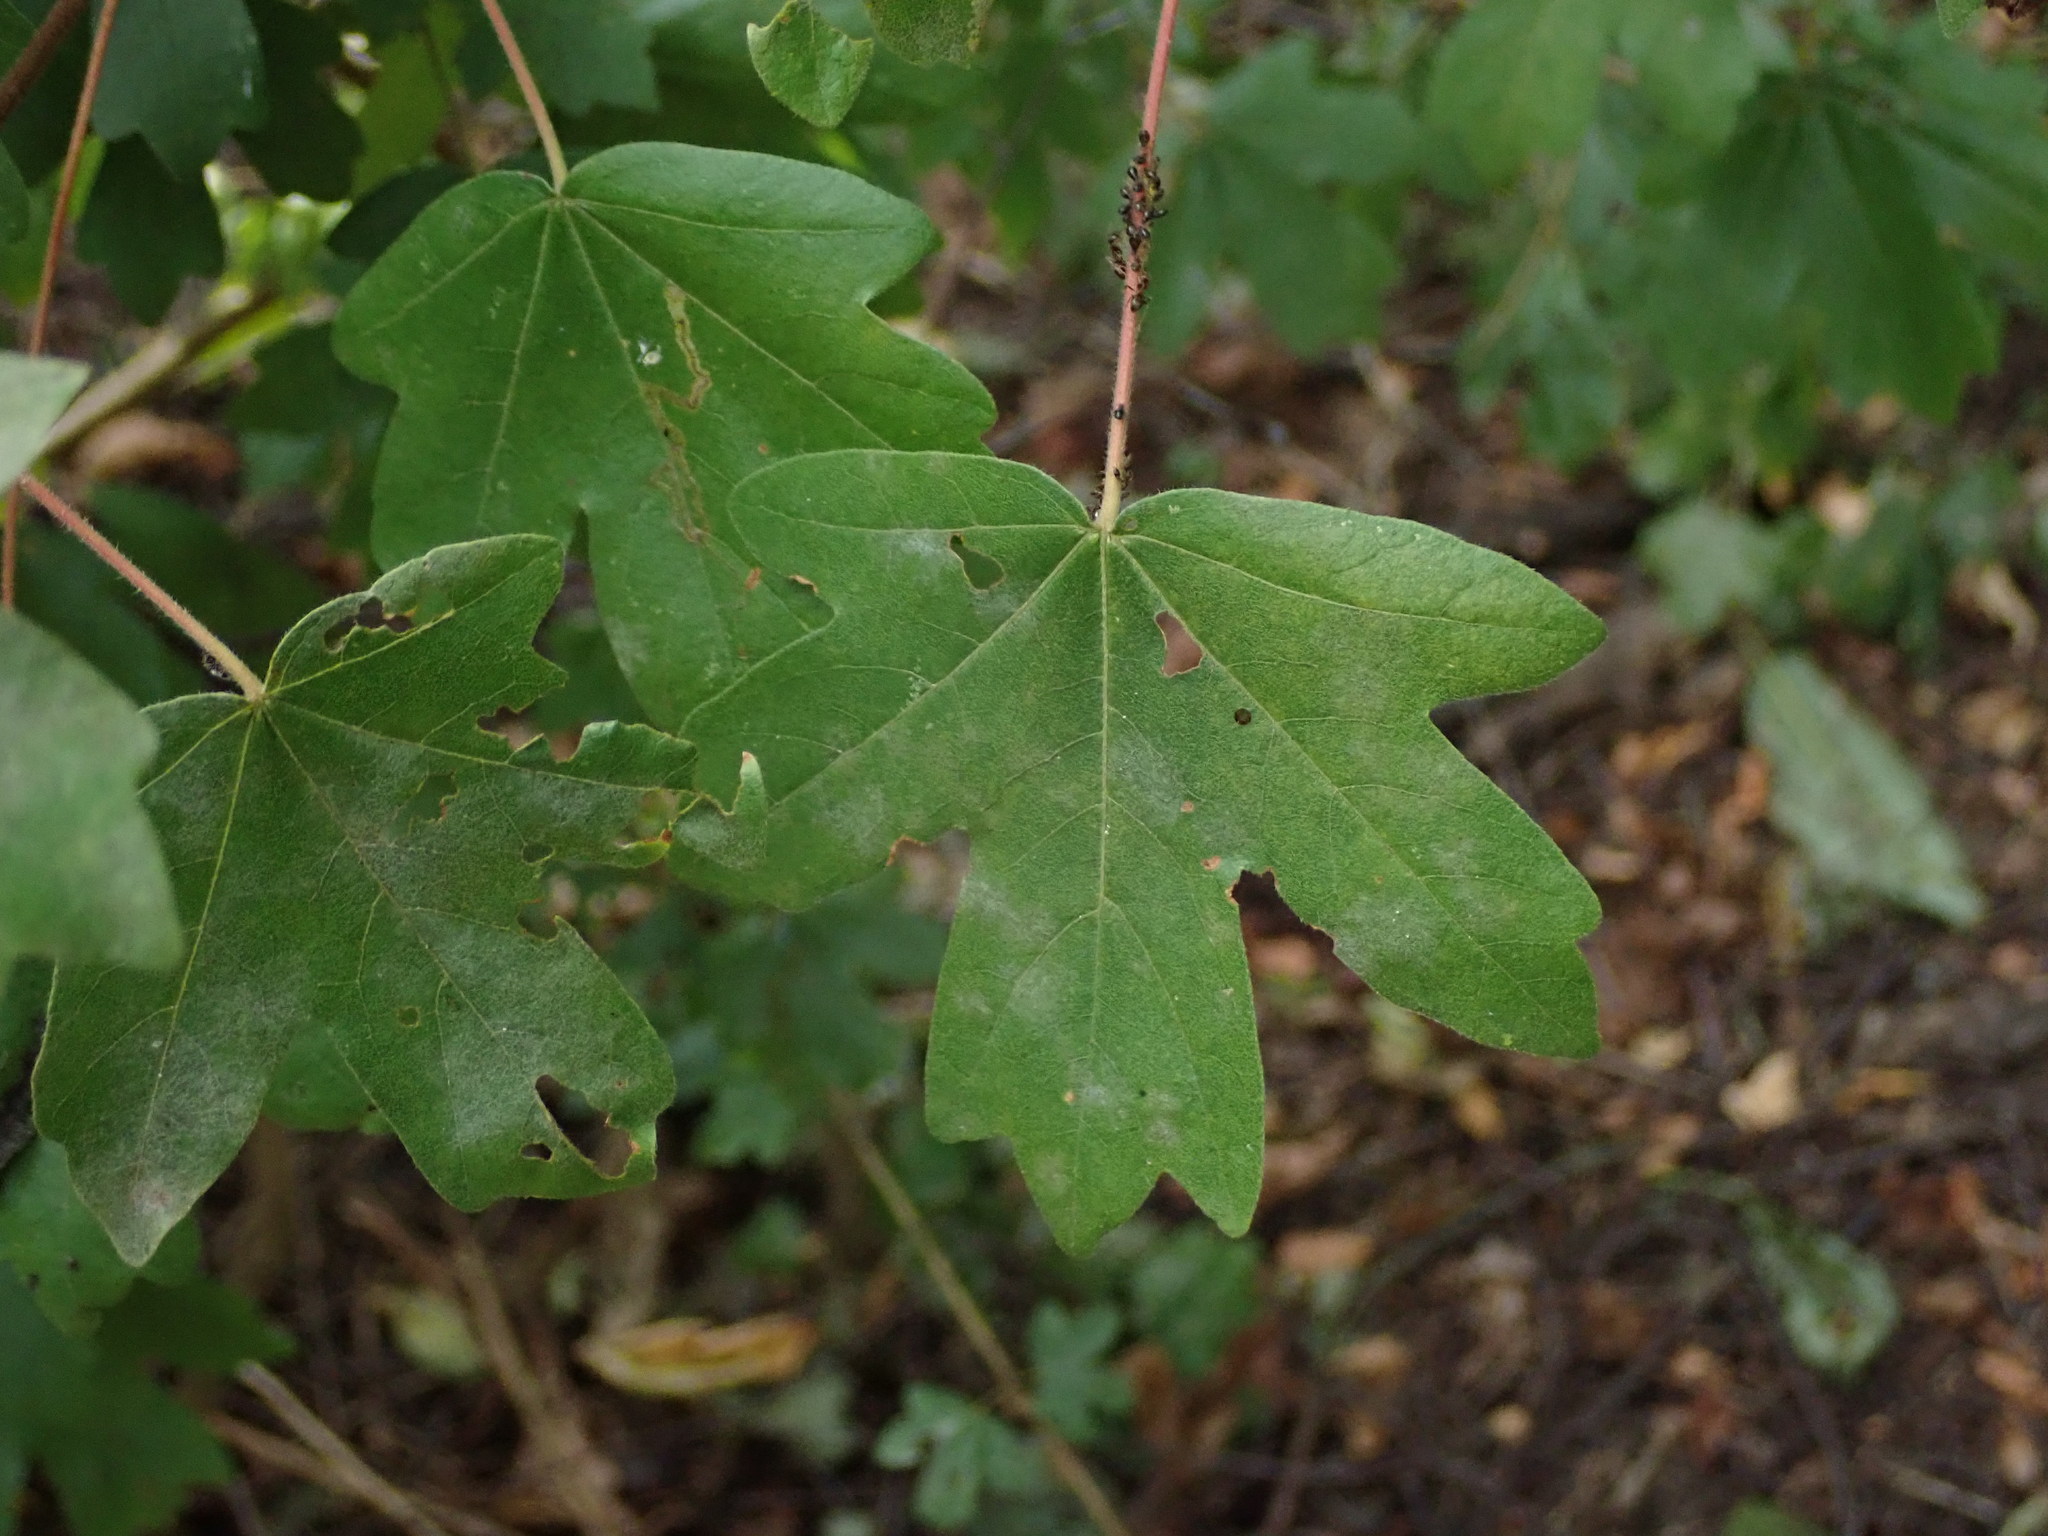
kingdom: Plantae
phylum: Tracheophyta
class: Magnoliopsida
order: Sapindales
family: Sapindaceae
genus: Acer
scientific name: Acer campestre
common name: Field maple
